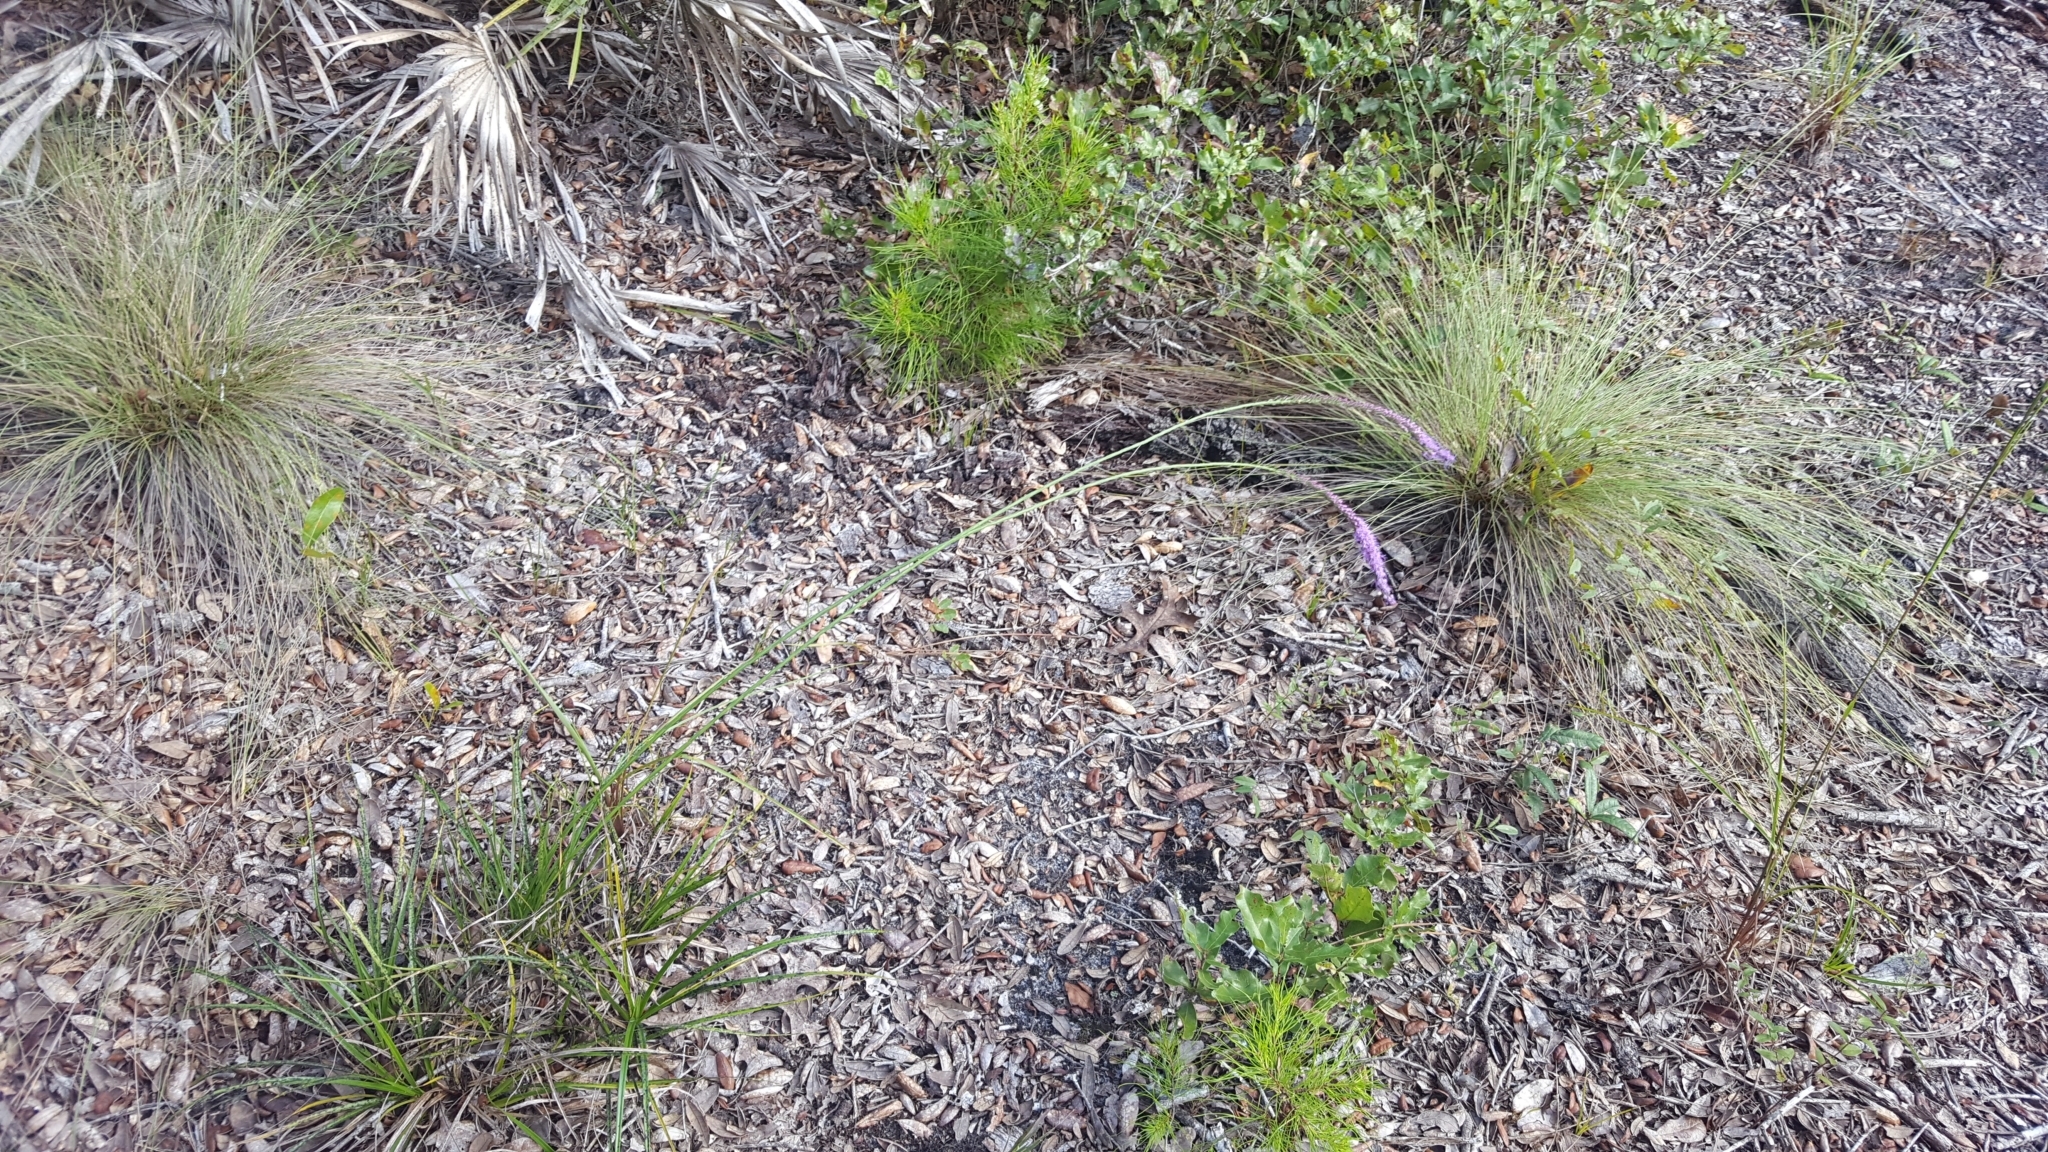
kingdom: Plantae
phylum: Tracheophyta
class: Magnoliopsida
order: Asterales
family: Asteraceae
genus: Liatris
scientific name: Liatris laevigata
